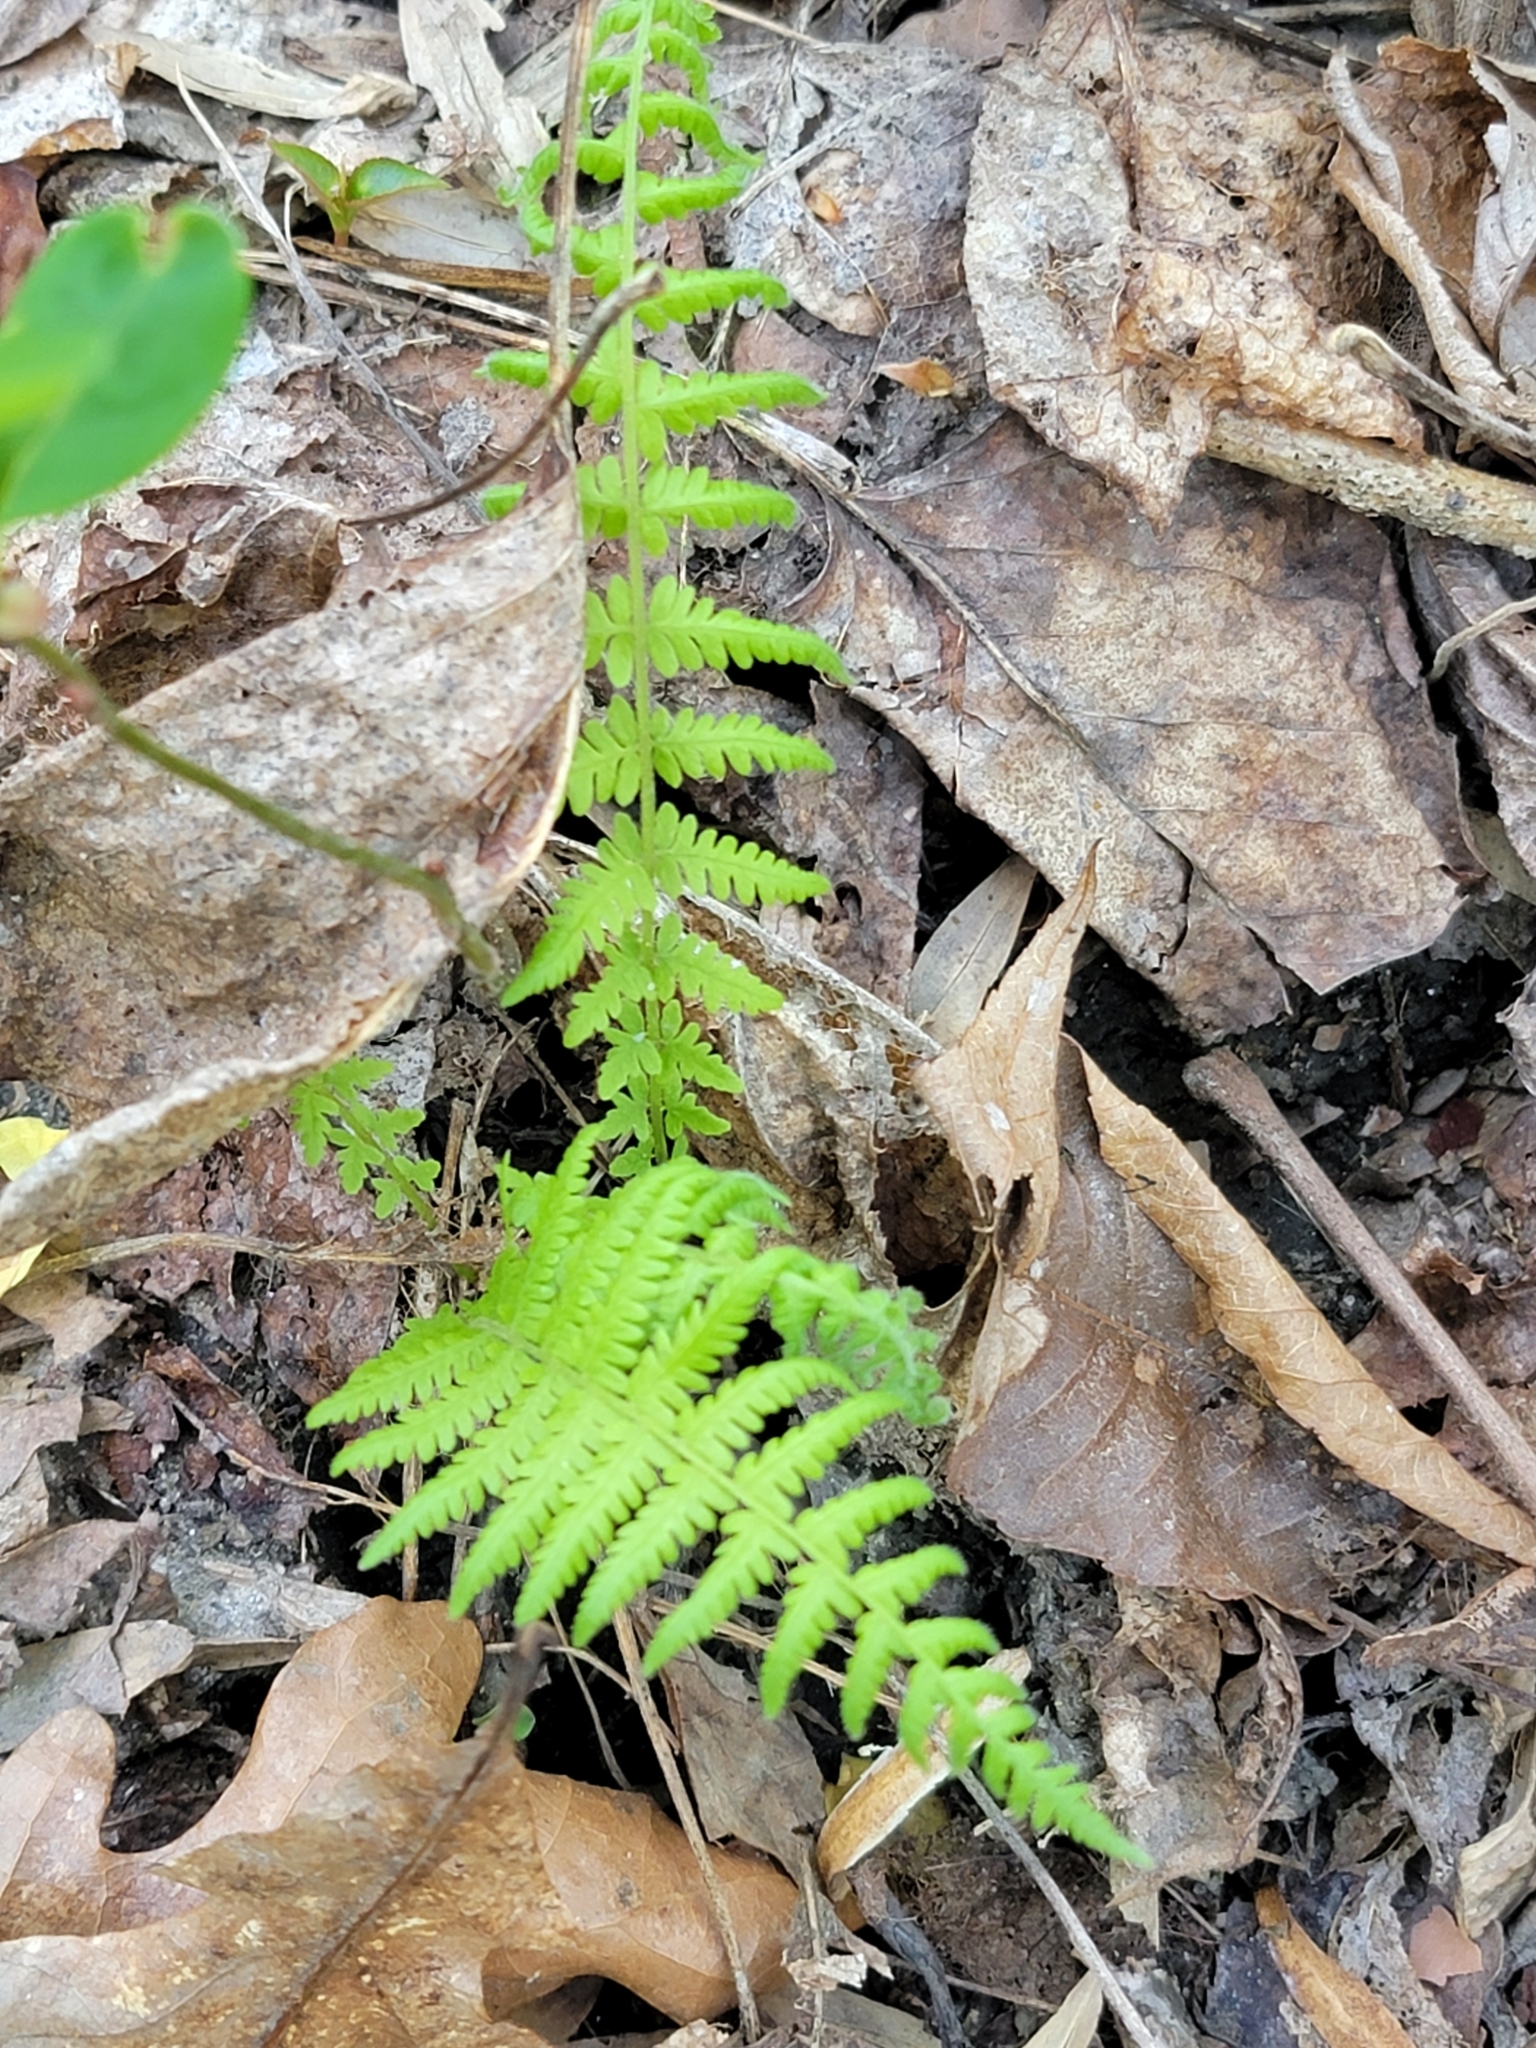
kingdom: Plantae
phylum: Tracheophyta
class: Polypodiopsida
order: Polypodiales
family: Thelypteridaceae
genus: Amauropelta
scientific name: Amauropelta noveboracensis
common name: New york fern
